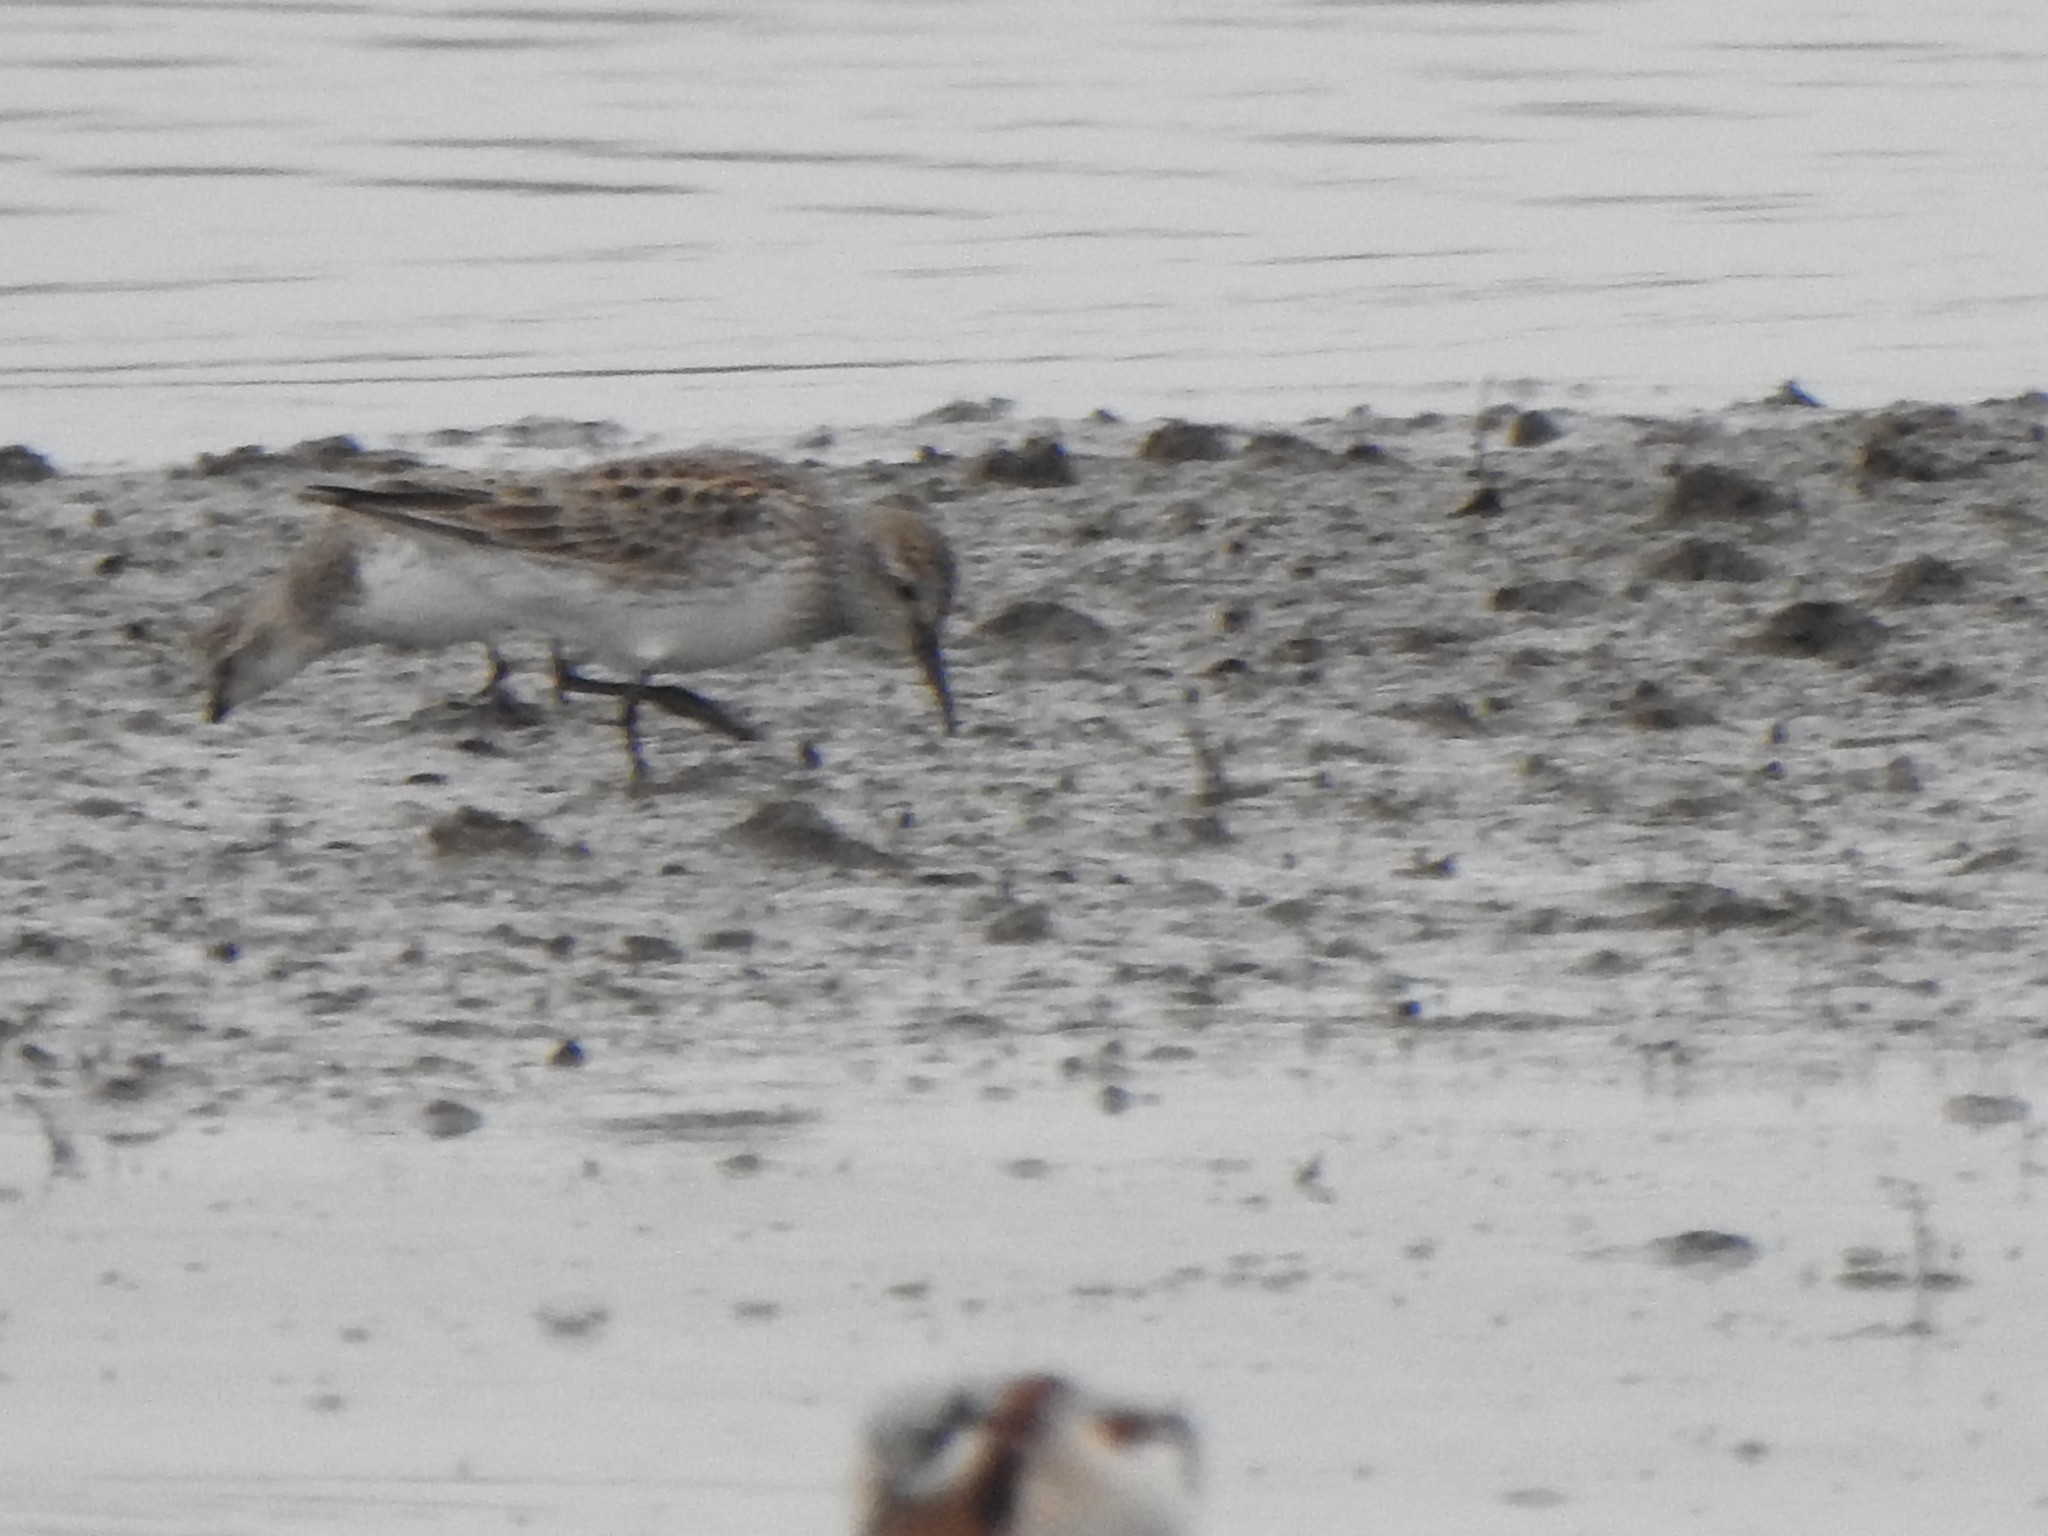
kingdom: Animalia
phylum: Chordata
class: Aves
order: Charadriiformes
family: Scolopacidae
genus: Calidris
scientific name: Calidris pusilla
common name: Semipalmated sandpiper
